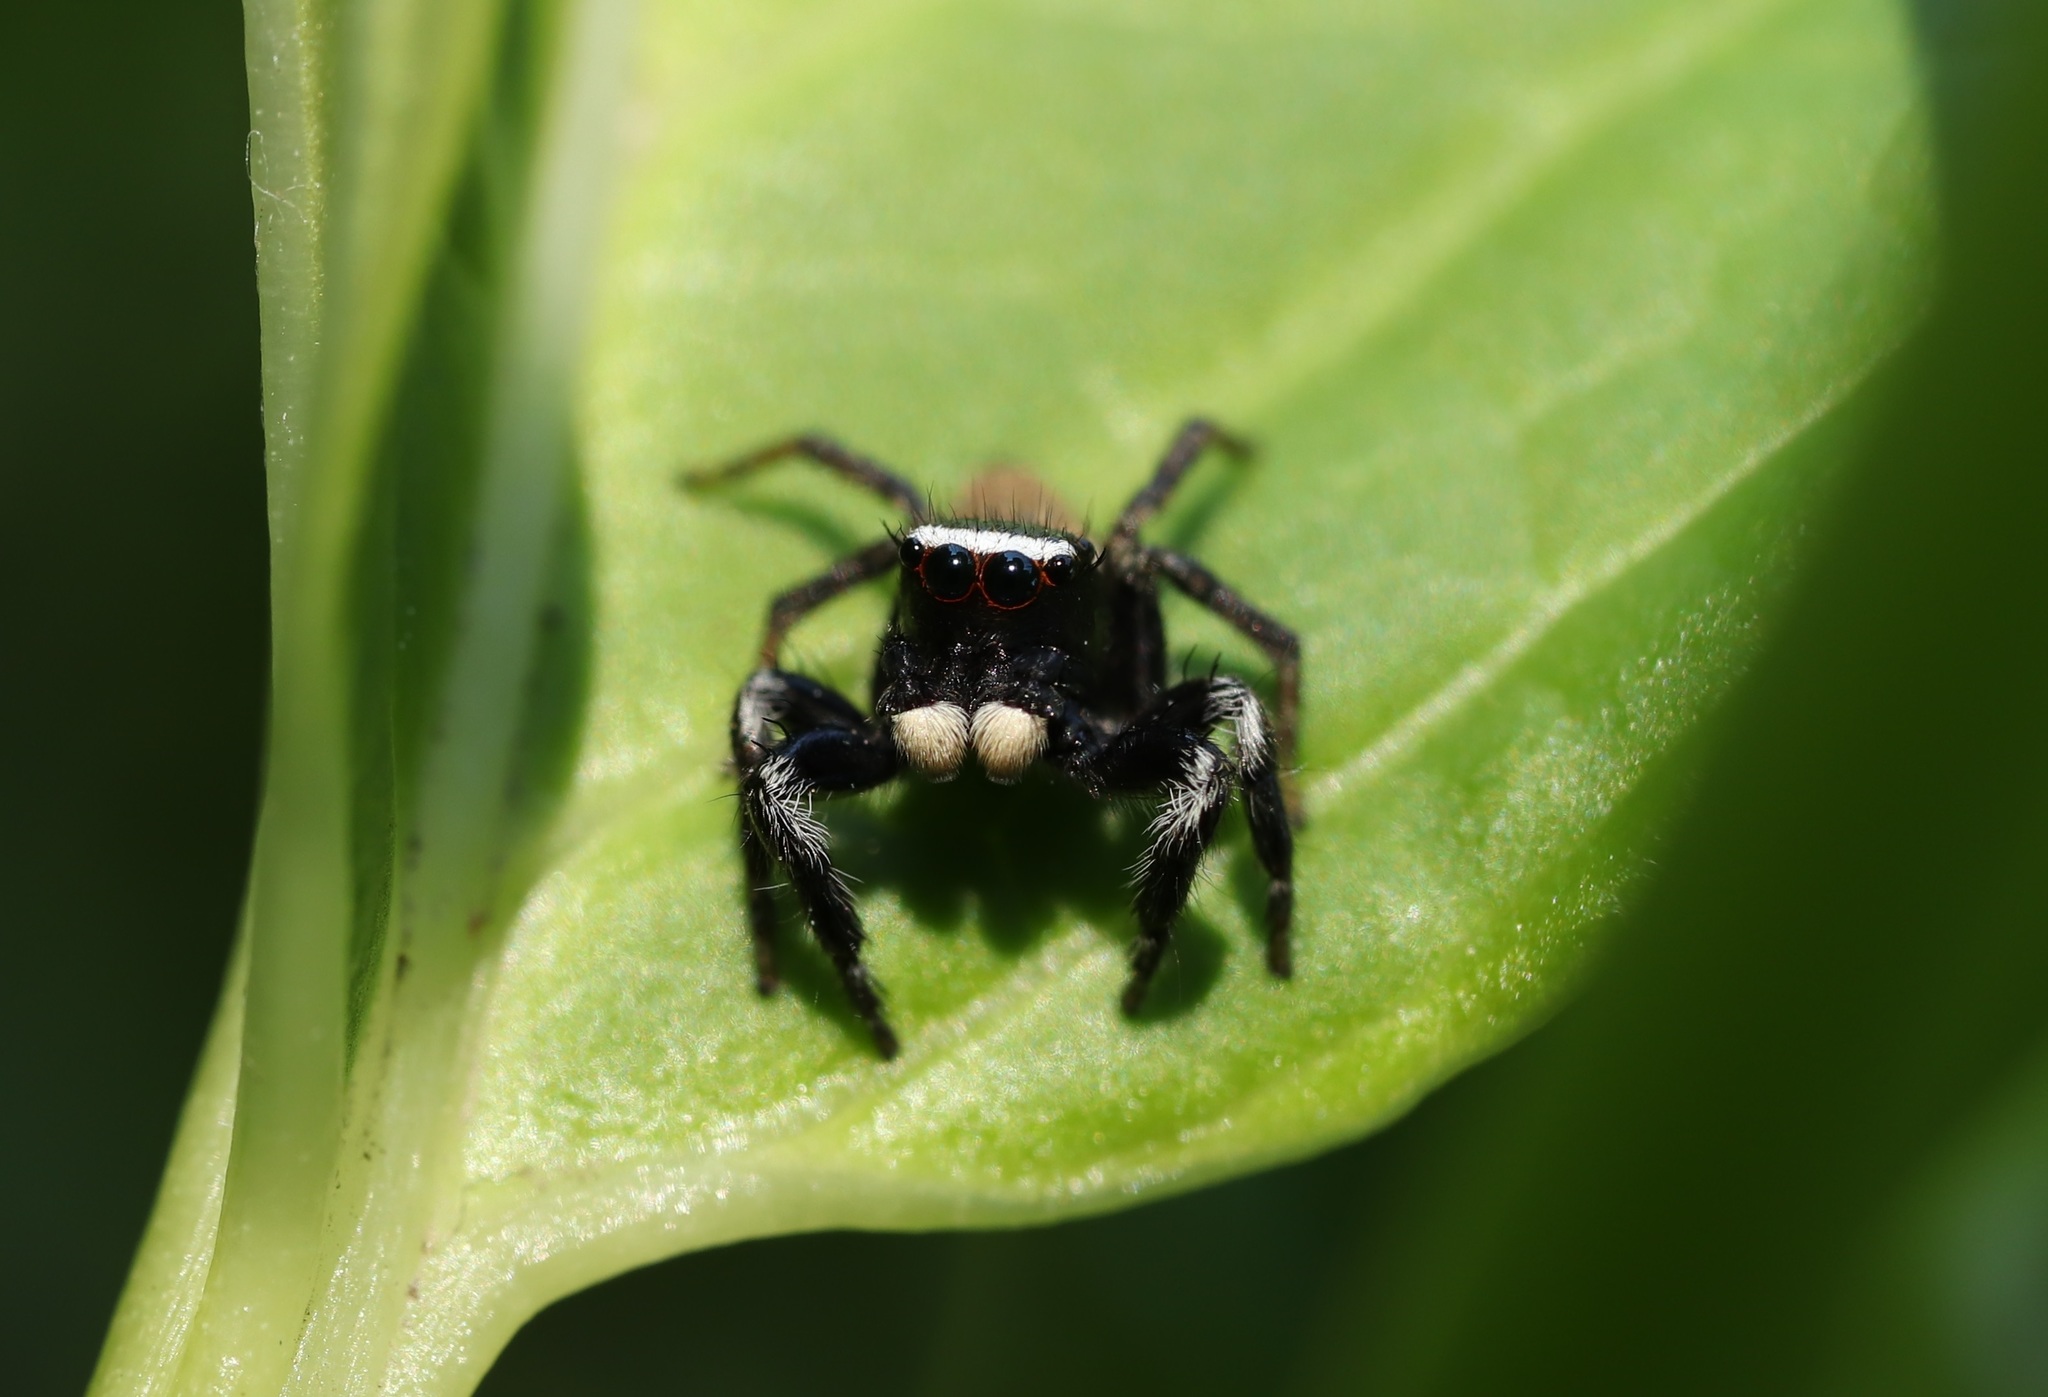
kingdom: Animalia
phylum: Arthropoda
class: Arachnida
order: Araneae
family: Salticidae
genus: Evarcha
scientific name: Evarcha albaria
